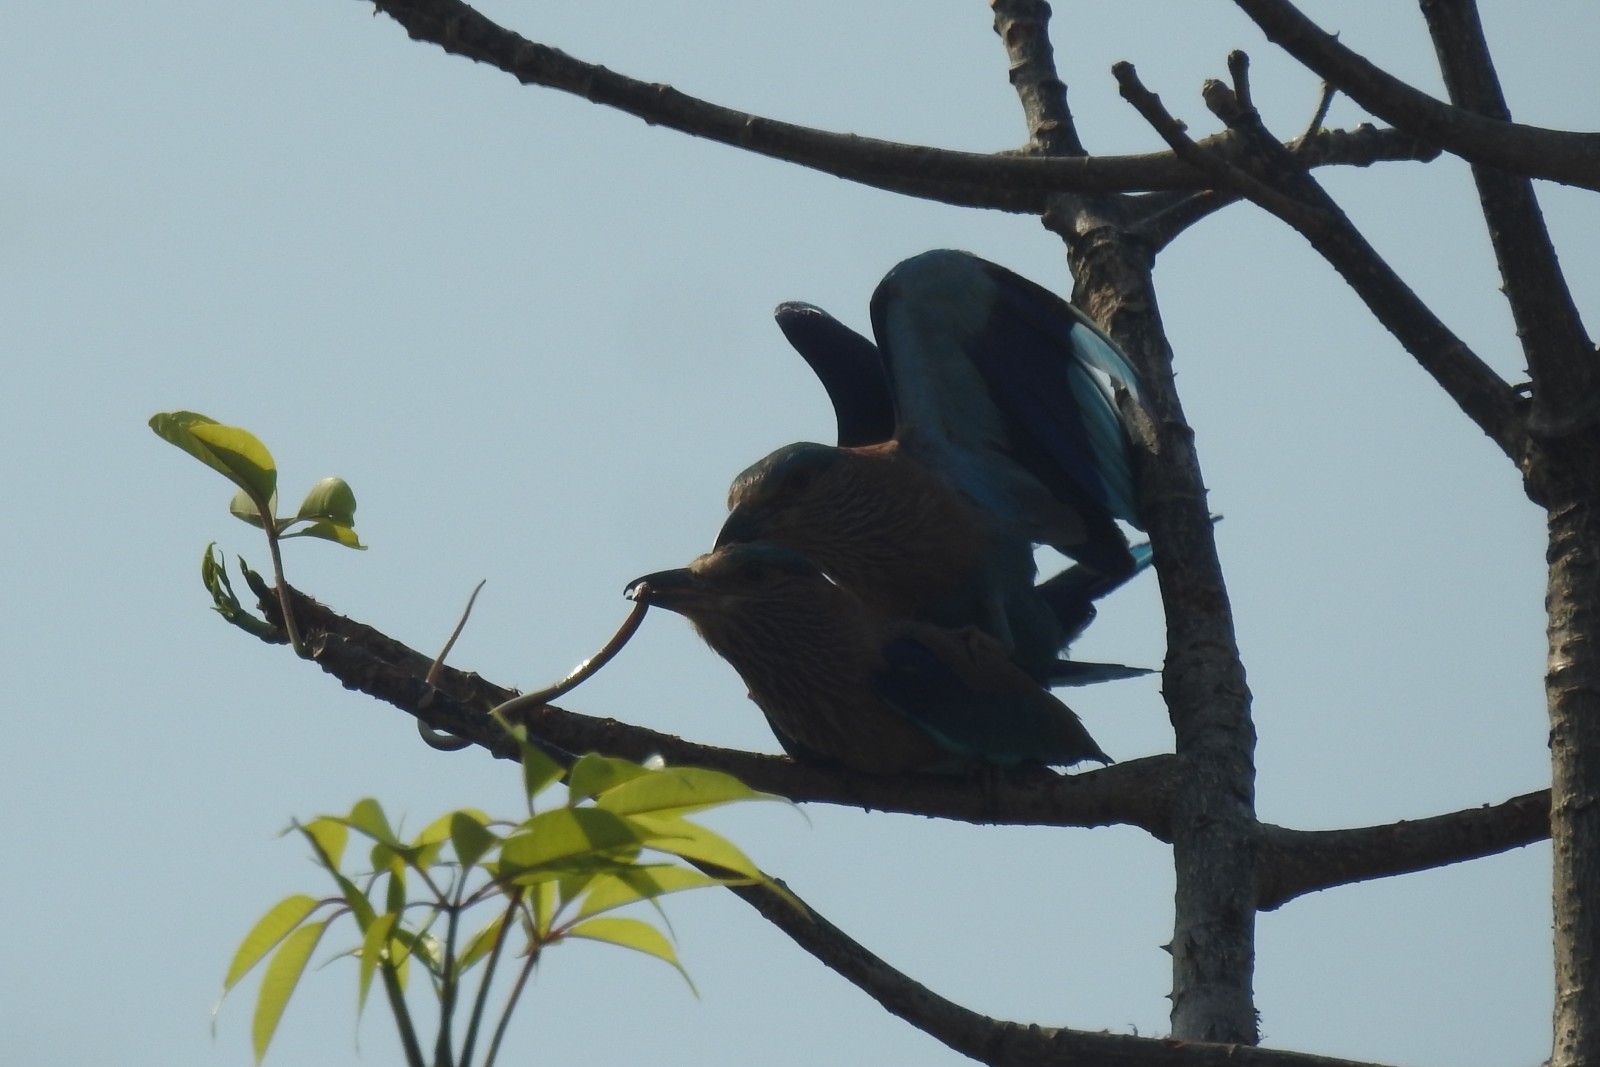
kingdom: Animalia
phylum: Chordata
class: Aves
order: Coraciiformes
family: Coraciidae
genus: Coracias
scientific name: Coracias benghalensis
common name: Indian roller
